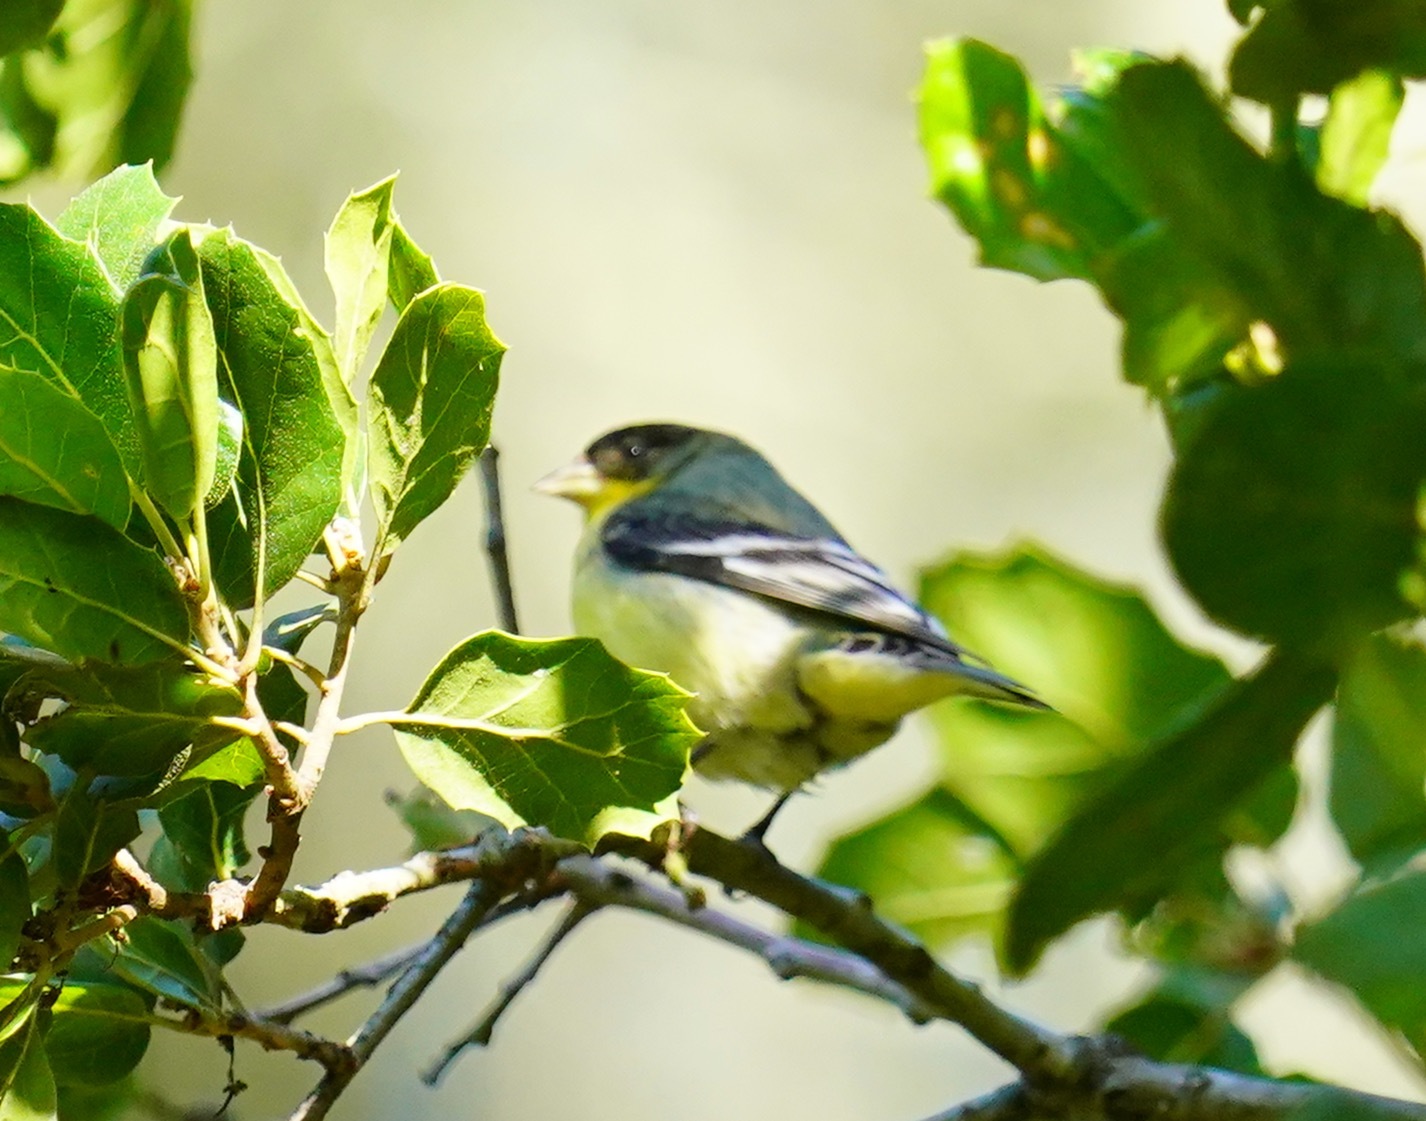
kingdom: Animalia
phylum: Chordata
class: Aves
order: Passeriformes
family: Fringillidae
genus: Spinus
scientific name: Spinus psaltria
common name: Lesser goldfinch
